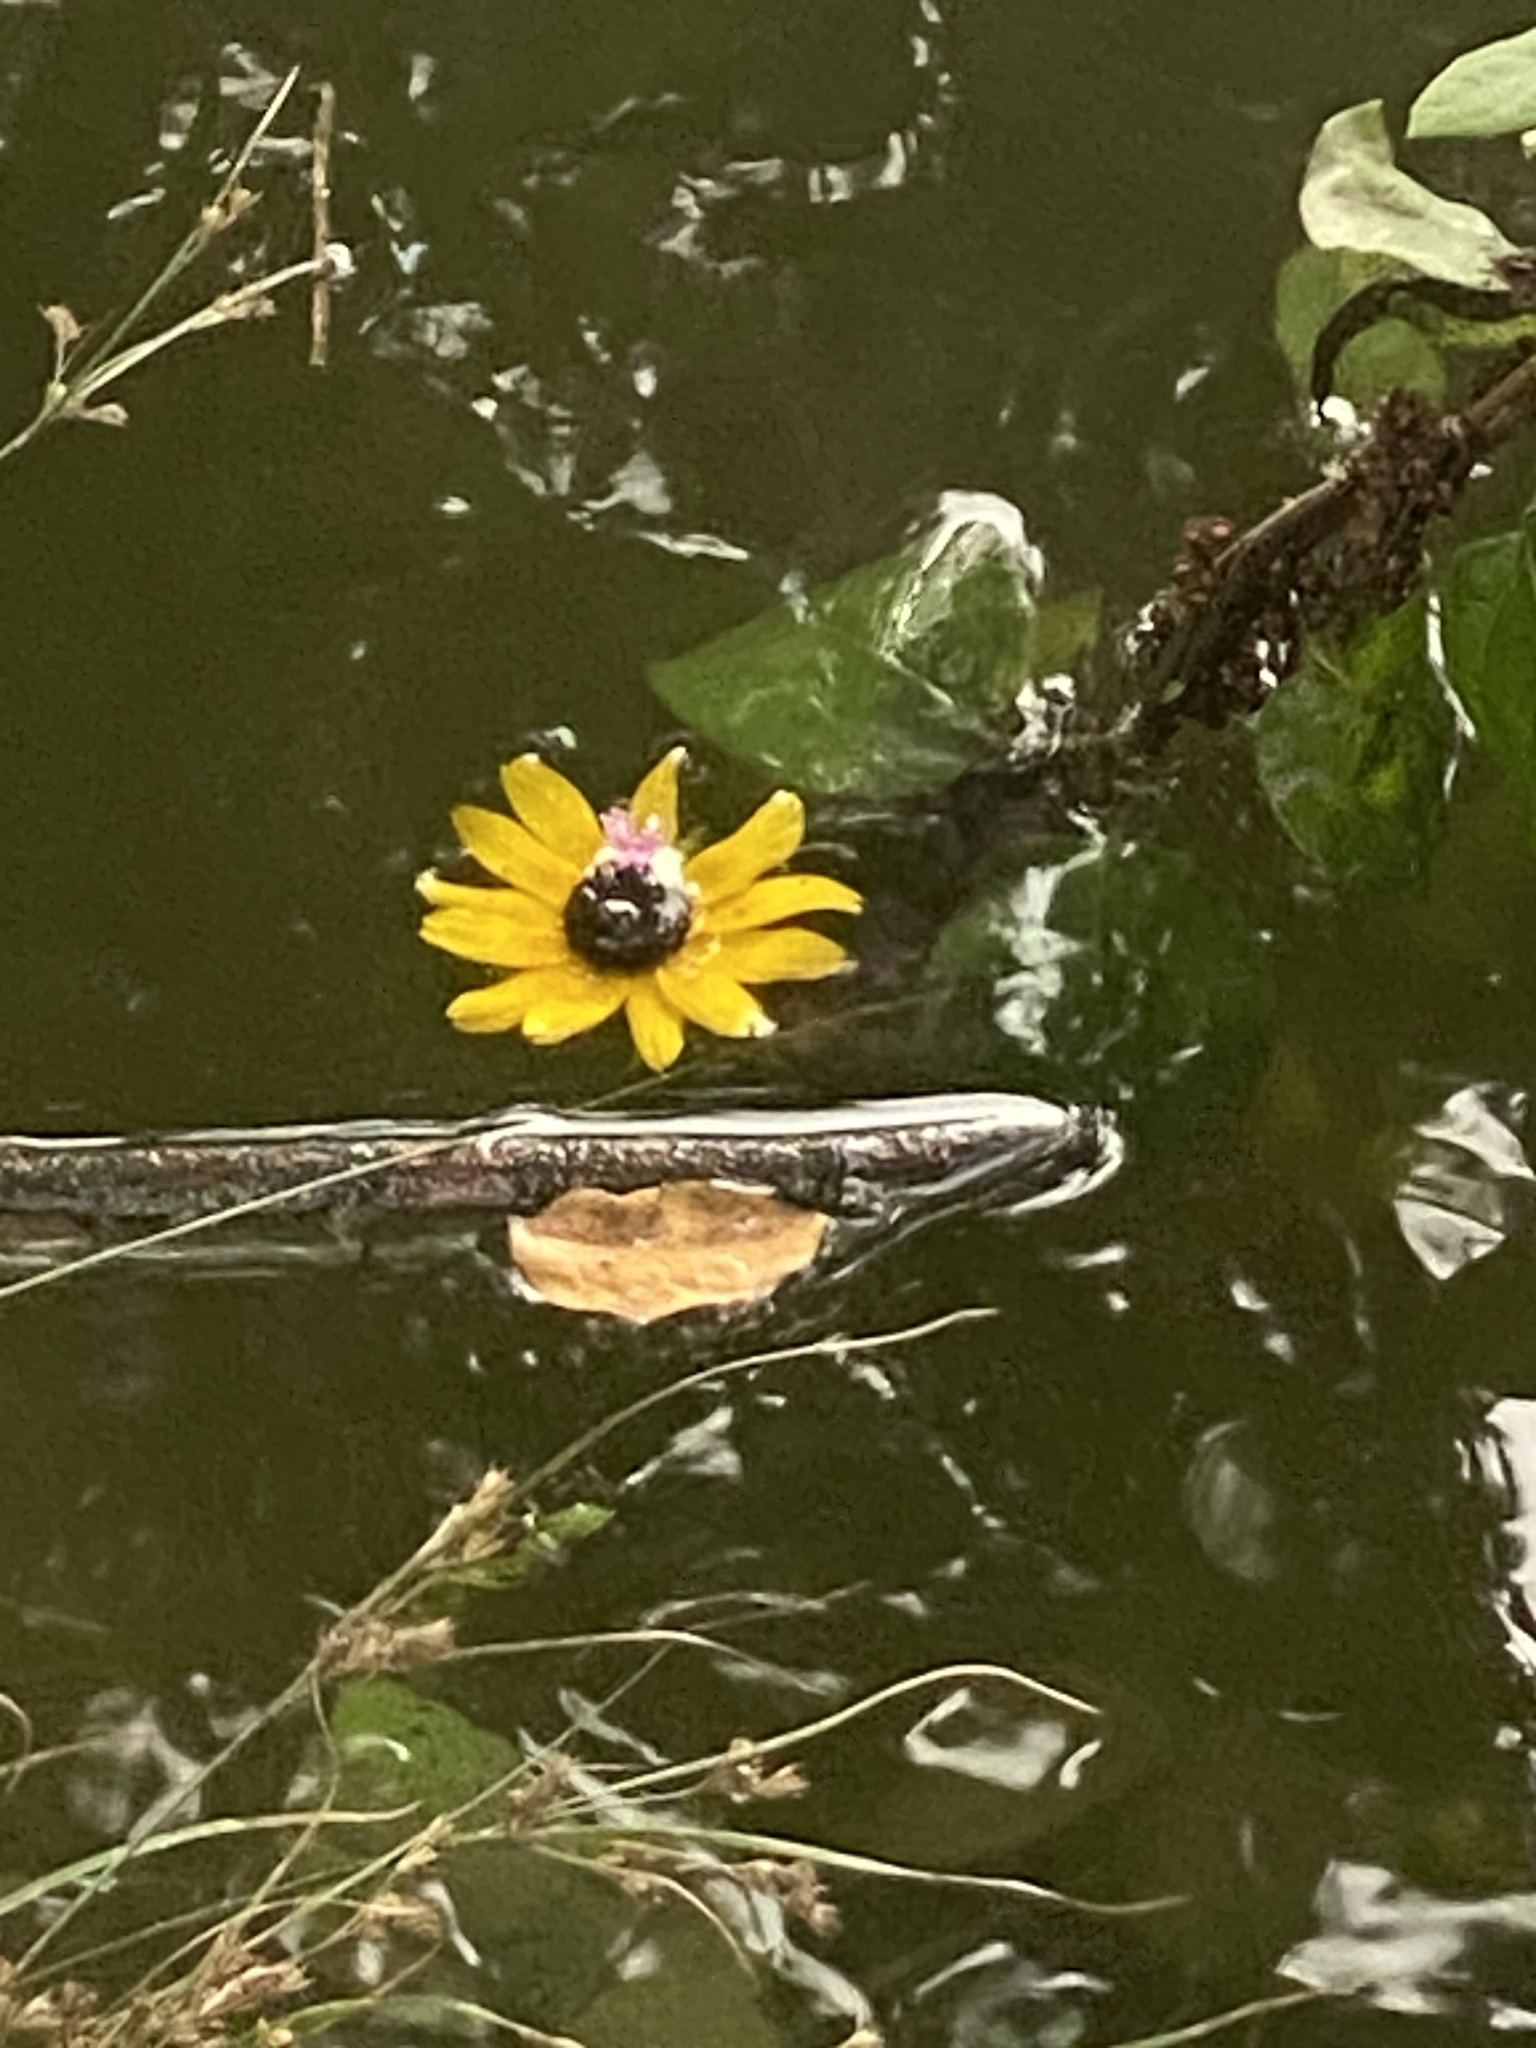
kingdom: Plantae
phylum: Tracheophyta
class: Magnoliopsida
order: Asterales
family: Asteraceae
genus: Rudbeckia
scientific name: Rudbeckia hirta
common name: Black-eyed-susan
